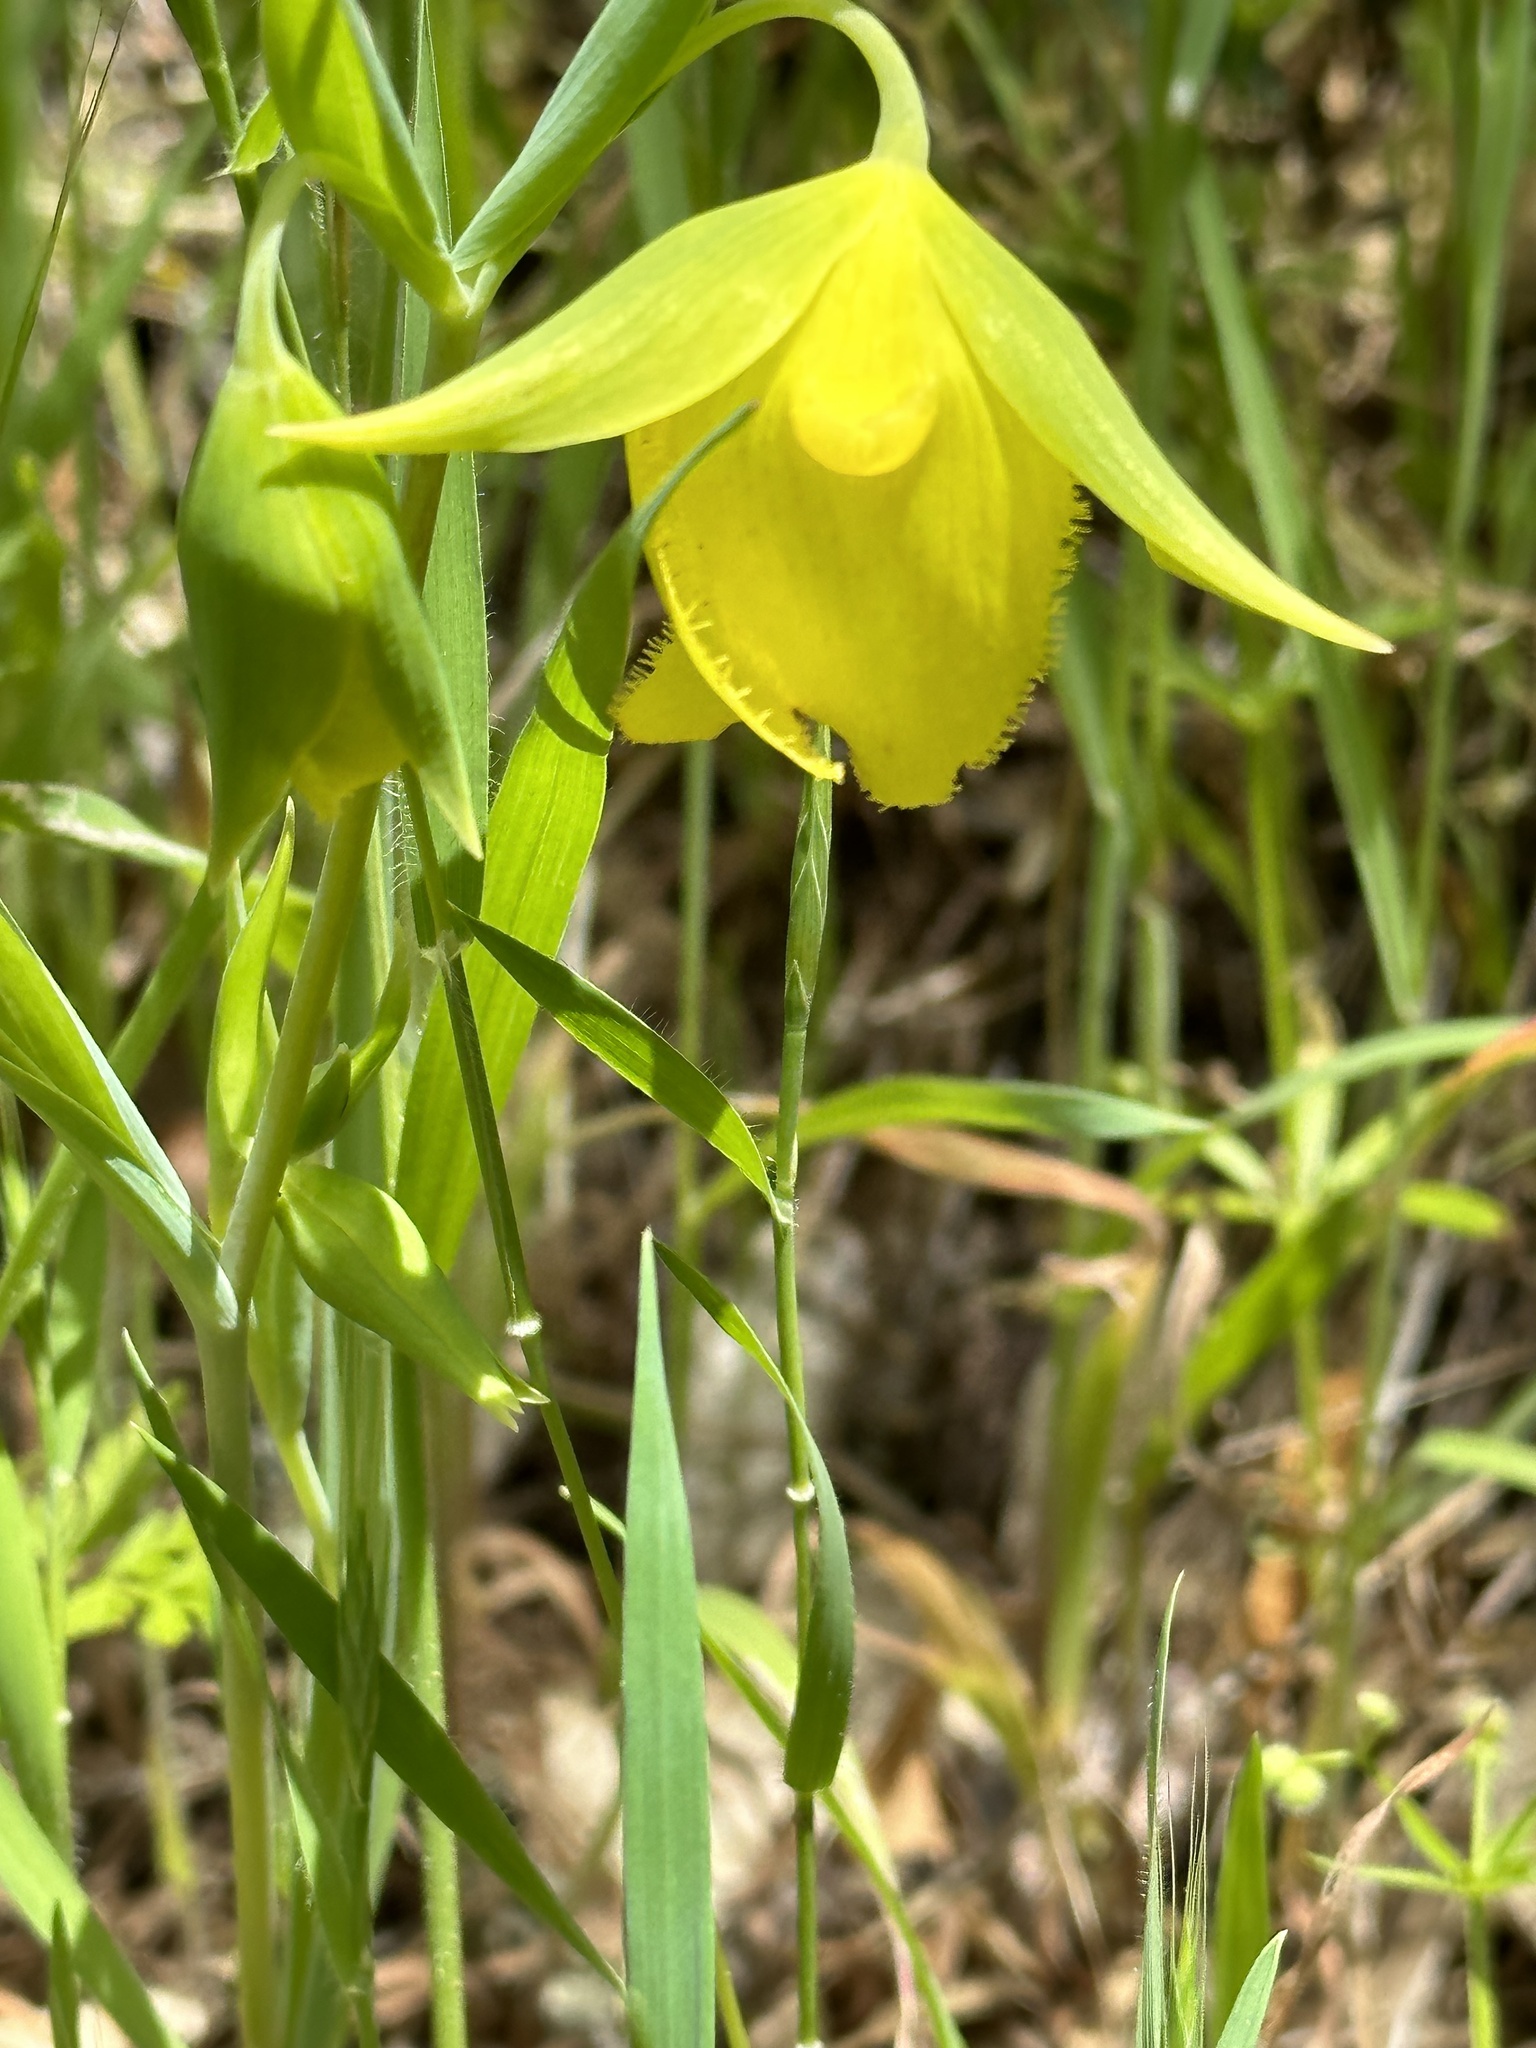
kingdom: Plantae
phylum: Tracheophyta
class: Liliopsida
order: Liliales
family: Liliaceae
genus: Calochortus
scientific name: Calochortus pulchellus
